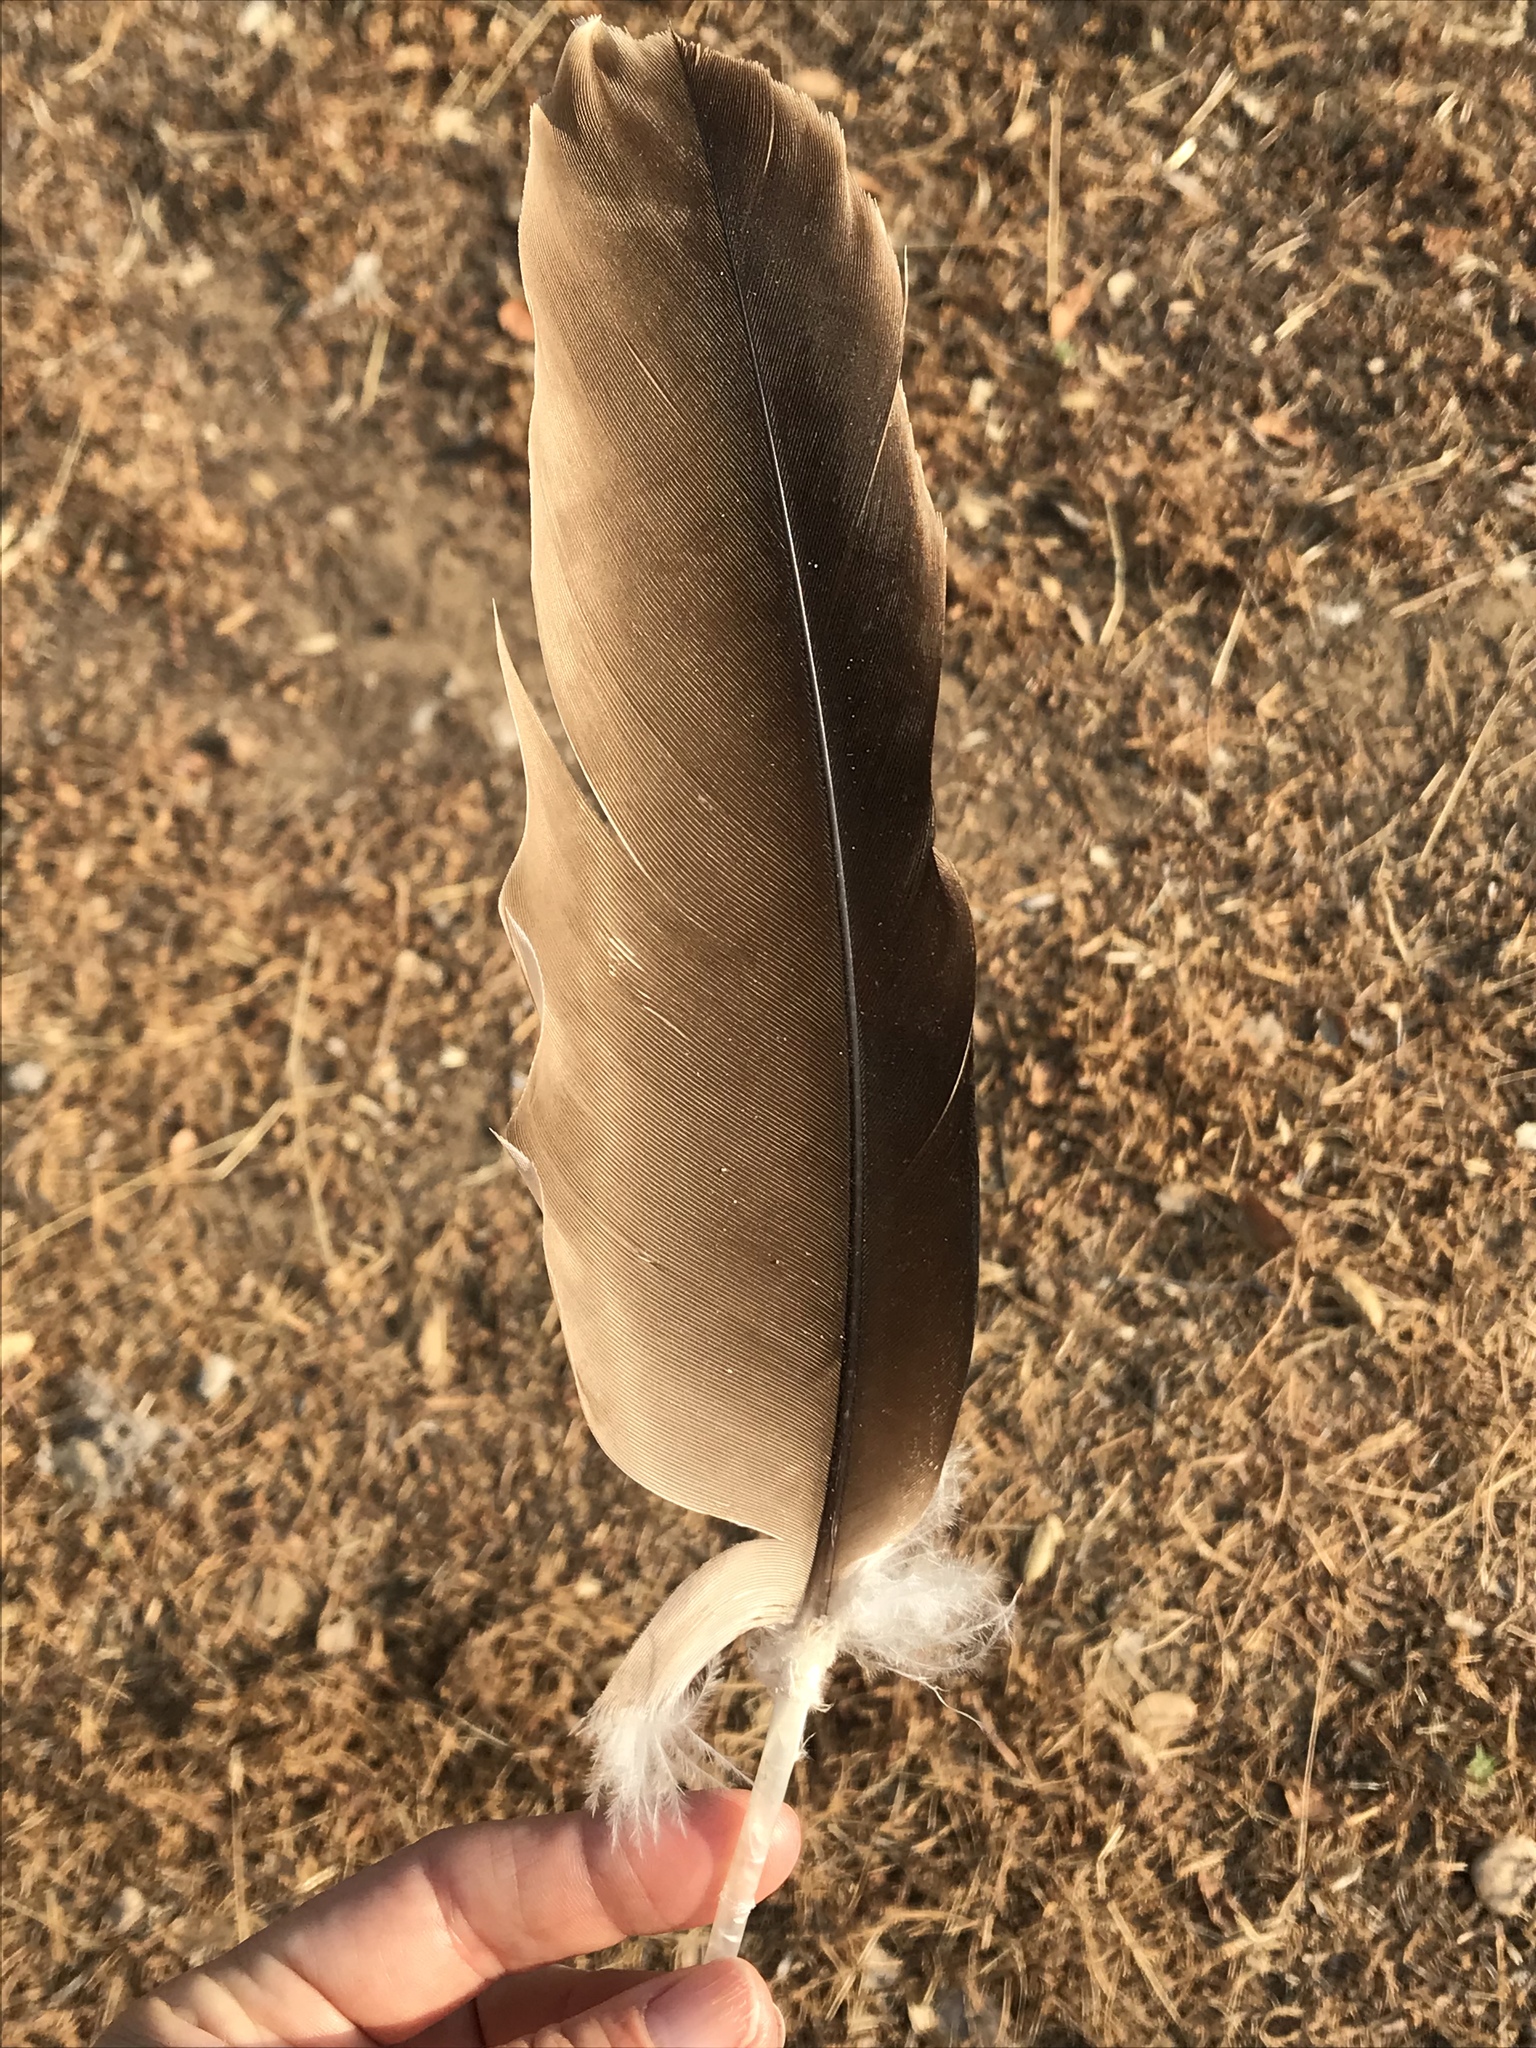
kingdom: Animalia
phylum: Chordata
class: Aves
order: Accipitriformes
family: Cathartidae
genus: Cathartes
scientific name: Cathartes aura
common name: Turkey vulture
